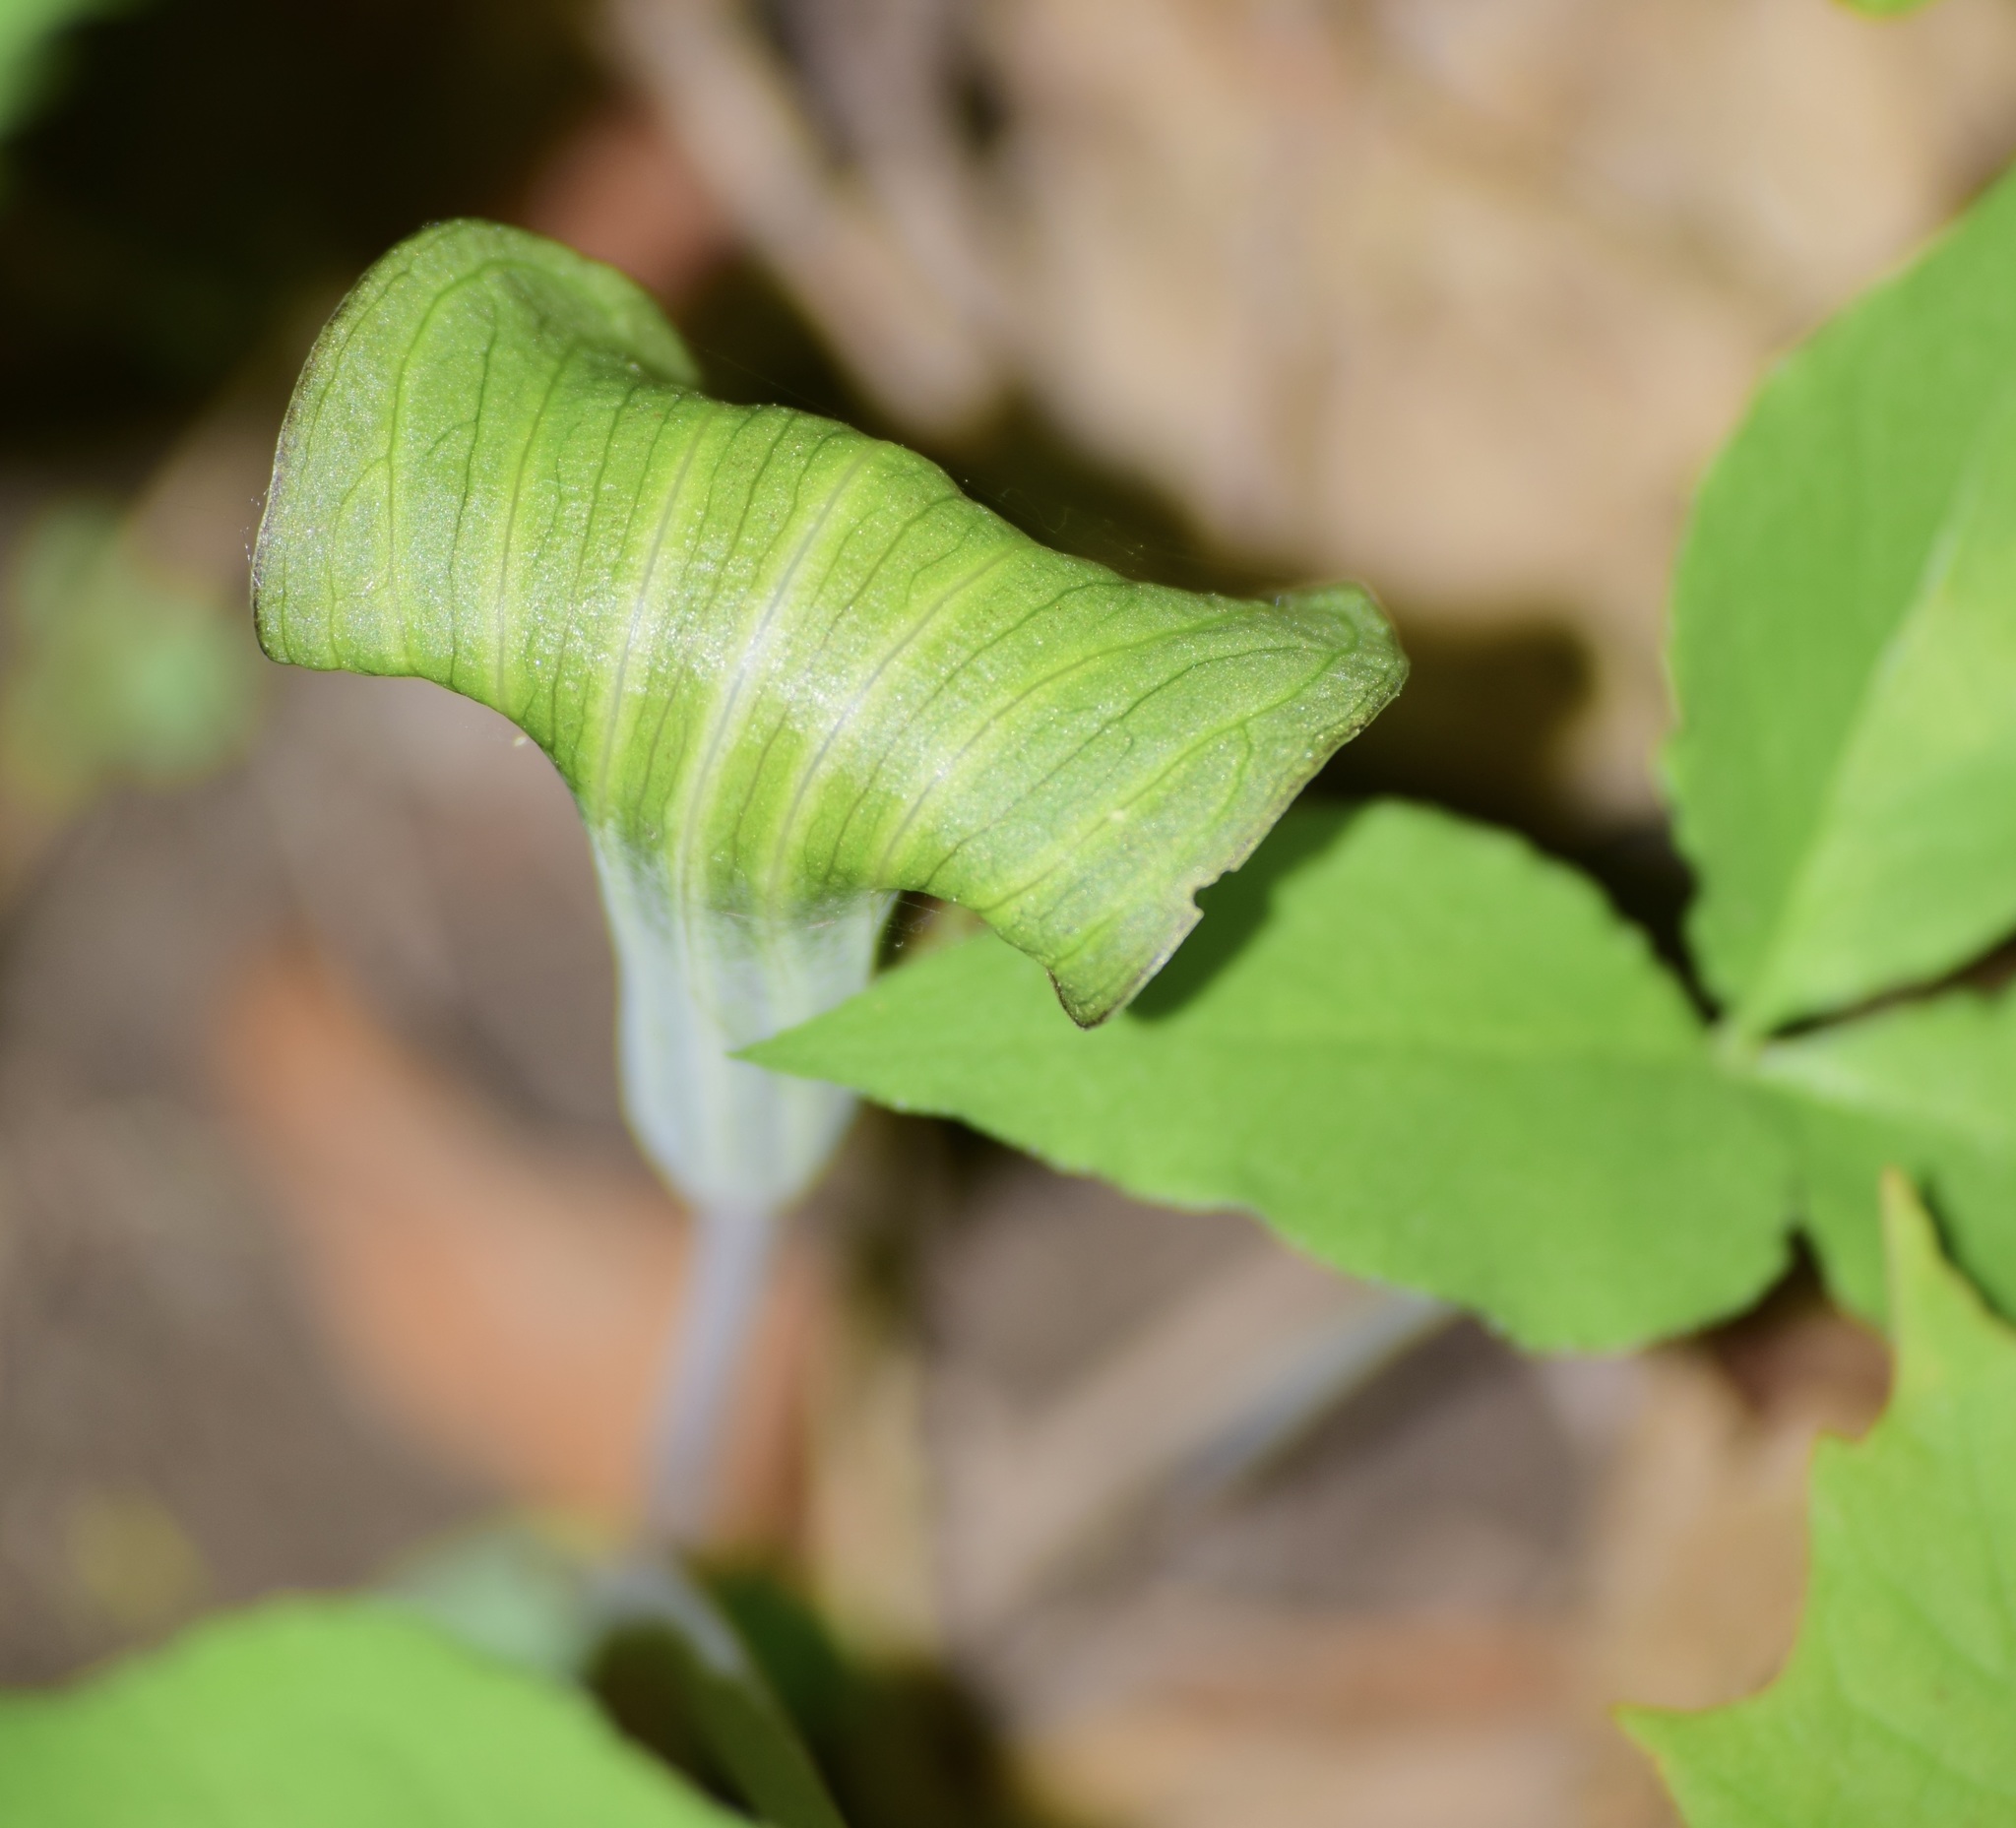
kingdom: Plantae
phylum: Tracheophyta
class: Liliopsida
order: Alismatales
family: Araceae
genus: Arisaema
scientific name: Arisaema triphyllum
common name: Jack-in-the-pulpit
